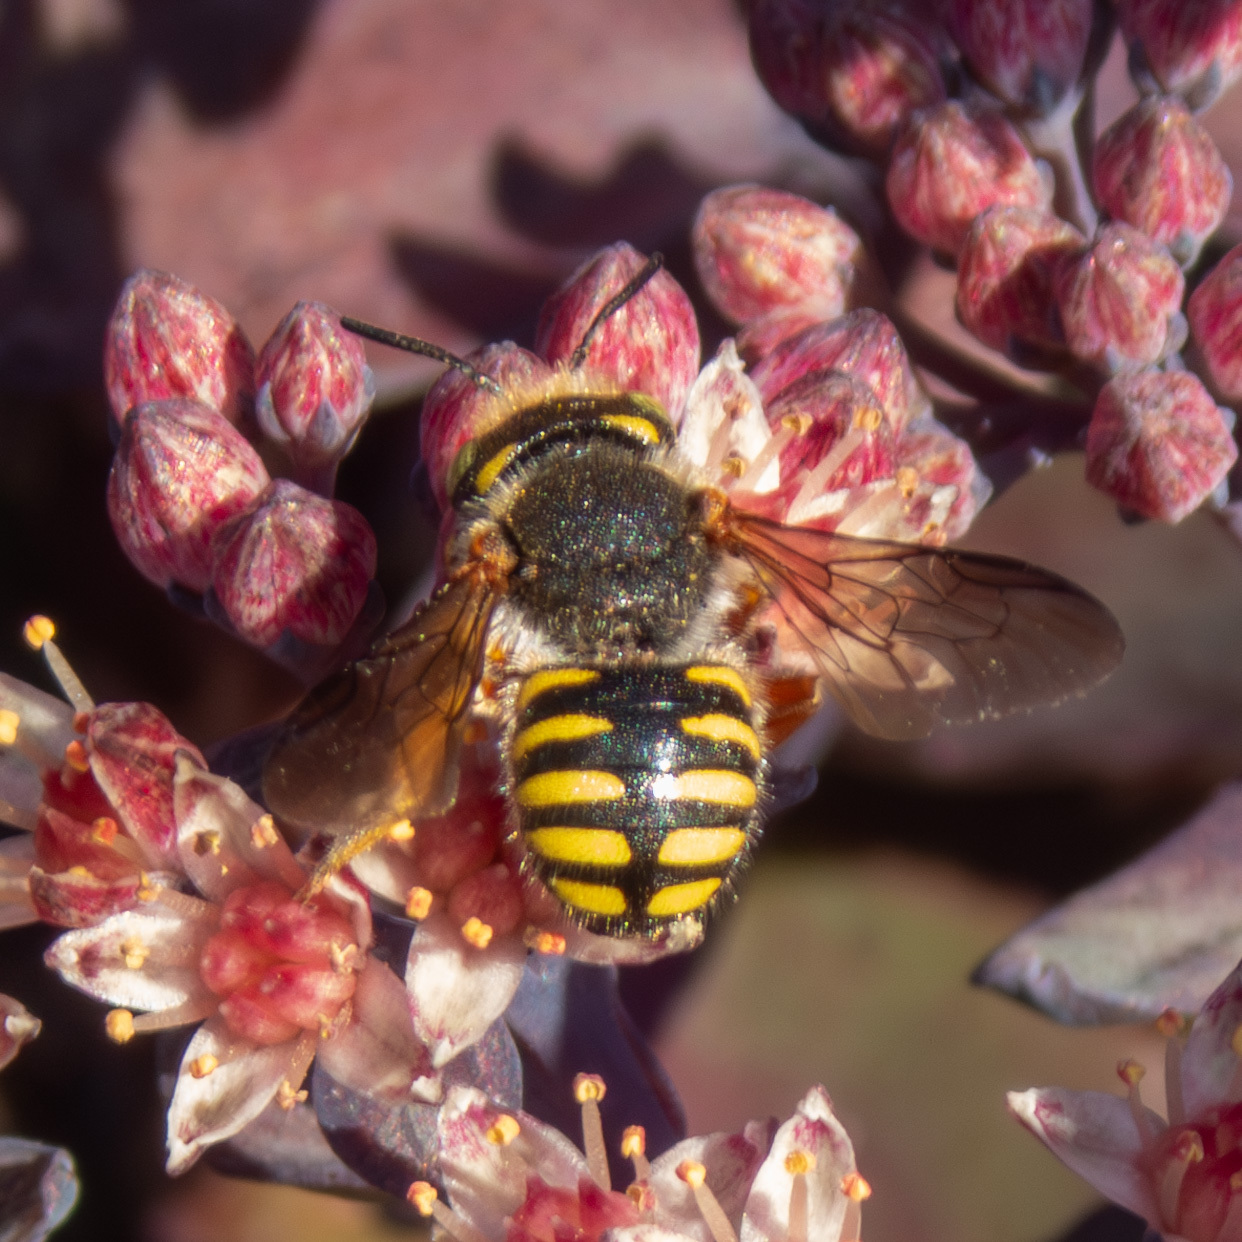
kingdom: Animalia
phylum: Arthropoda
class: Insecta
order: Hymenoptera
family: Megachilidae
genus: Anthidium
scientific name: Anthidium oblongatum
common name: Oblong wool carder bee
